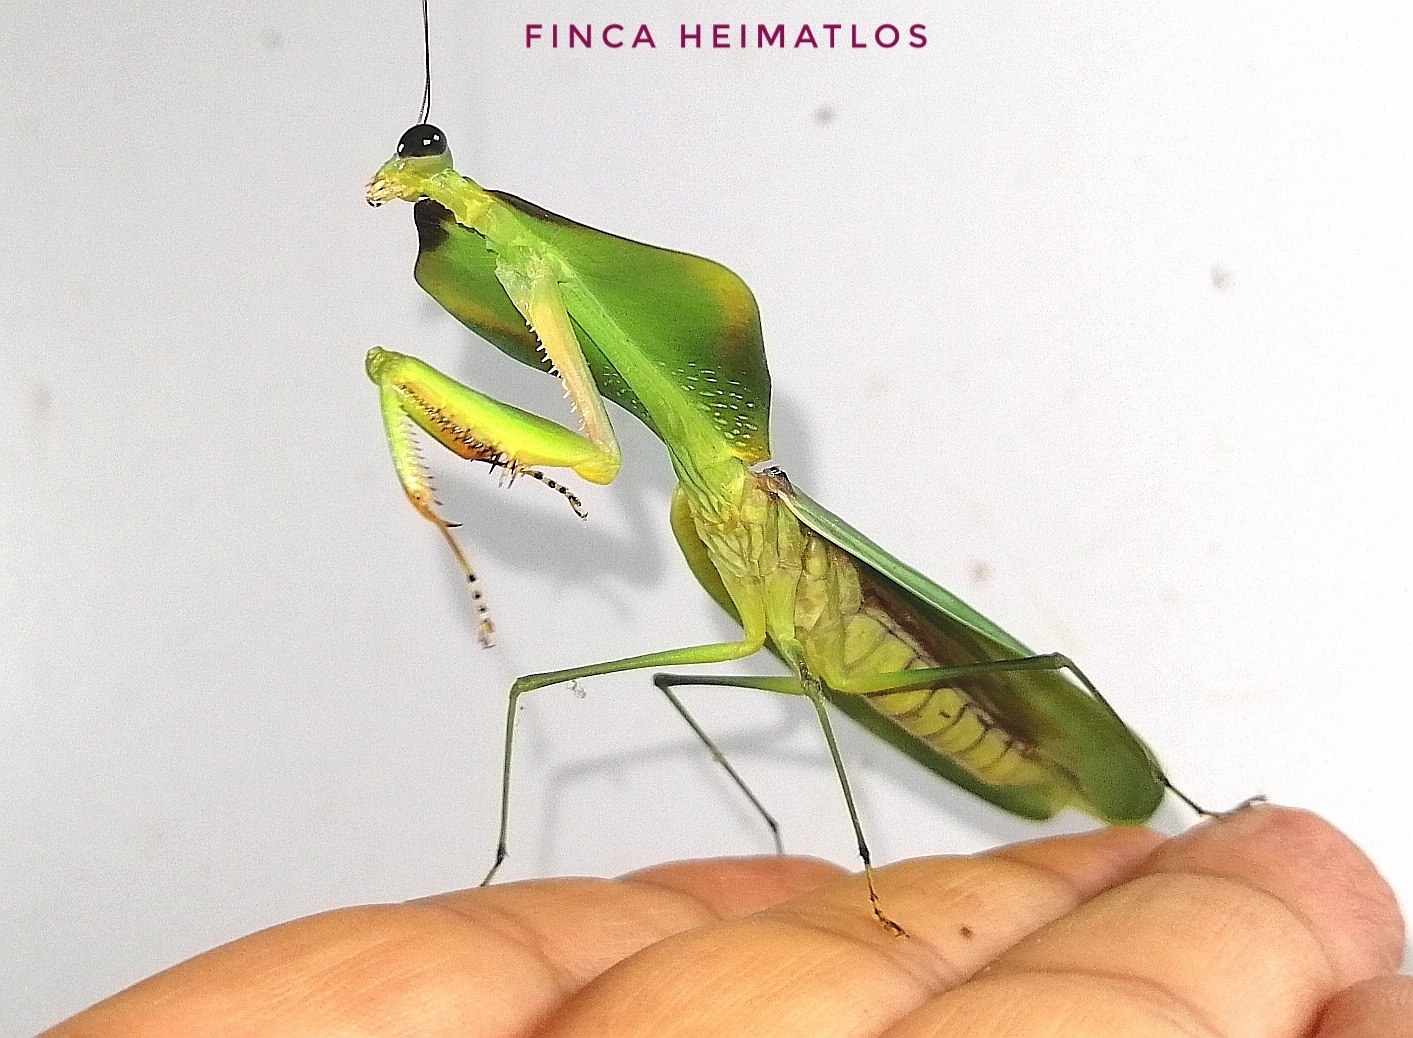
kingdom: Animalia
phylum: Arthropoda
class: Insecta
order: Mantodea
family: Mantidae
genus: Choeradodis
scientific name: Choeradodis stalii
